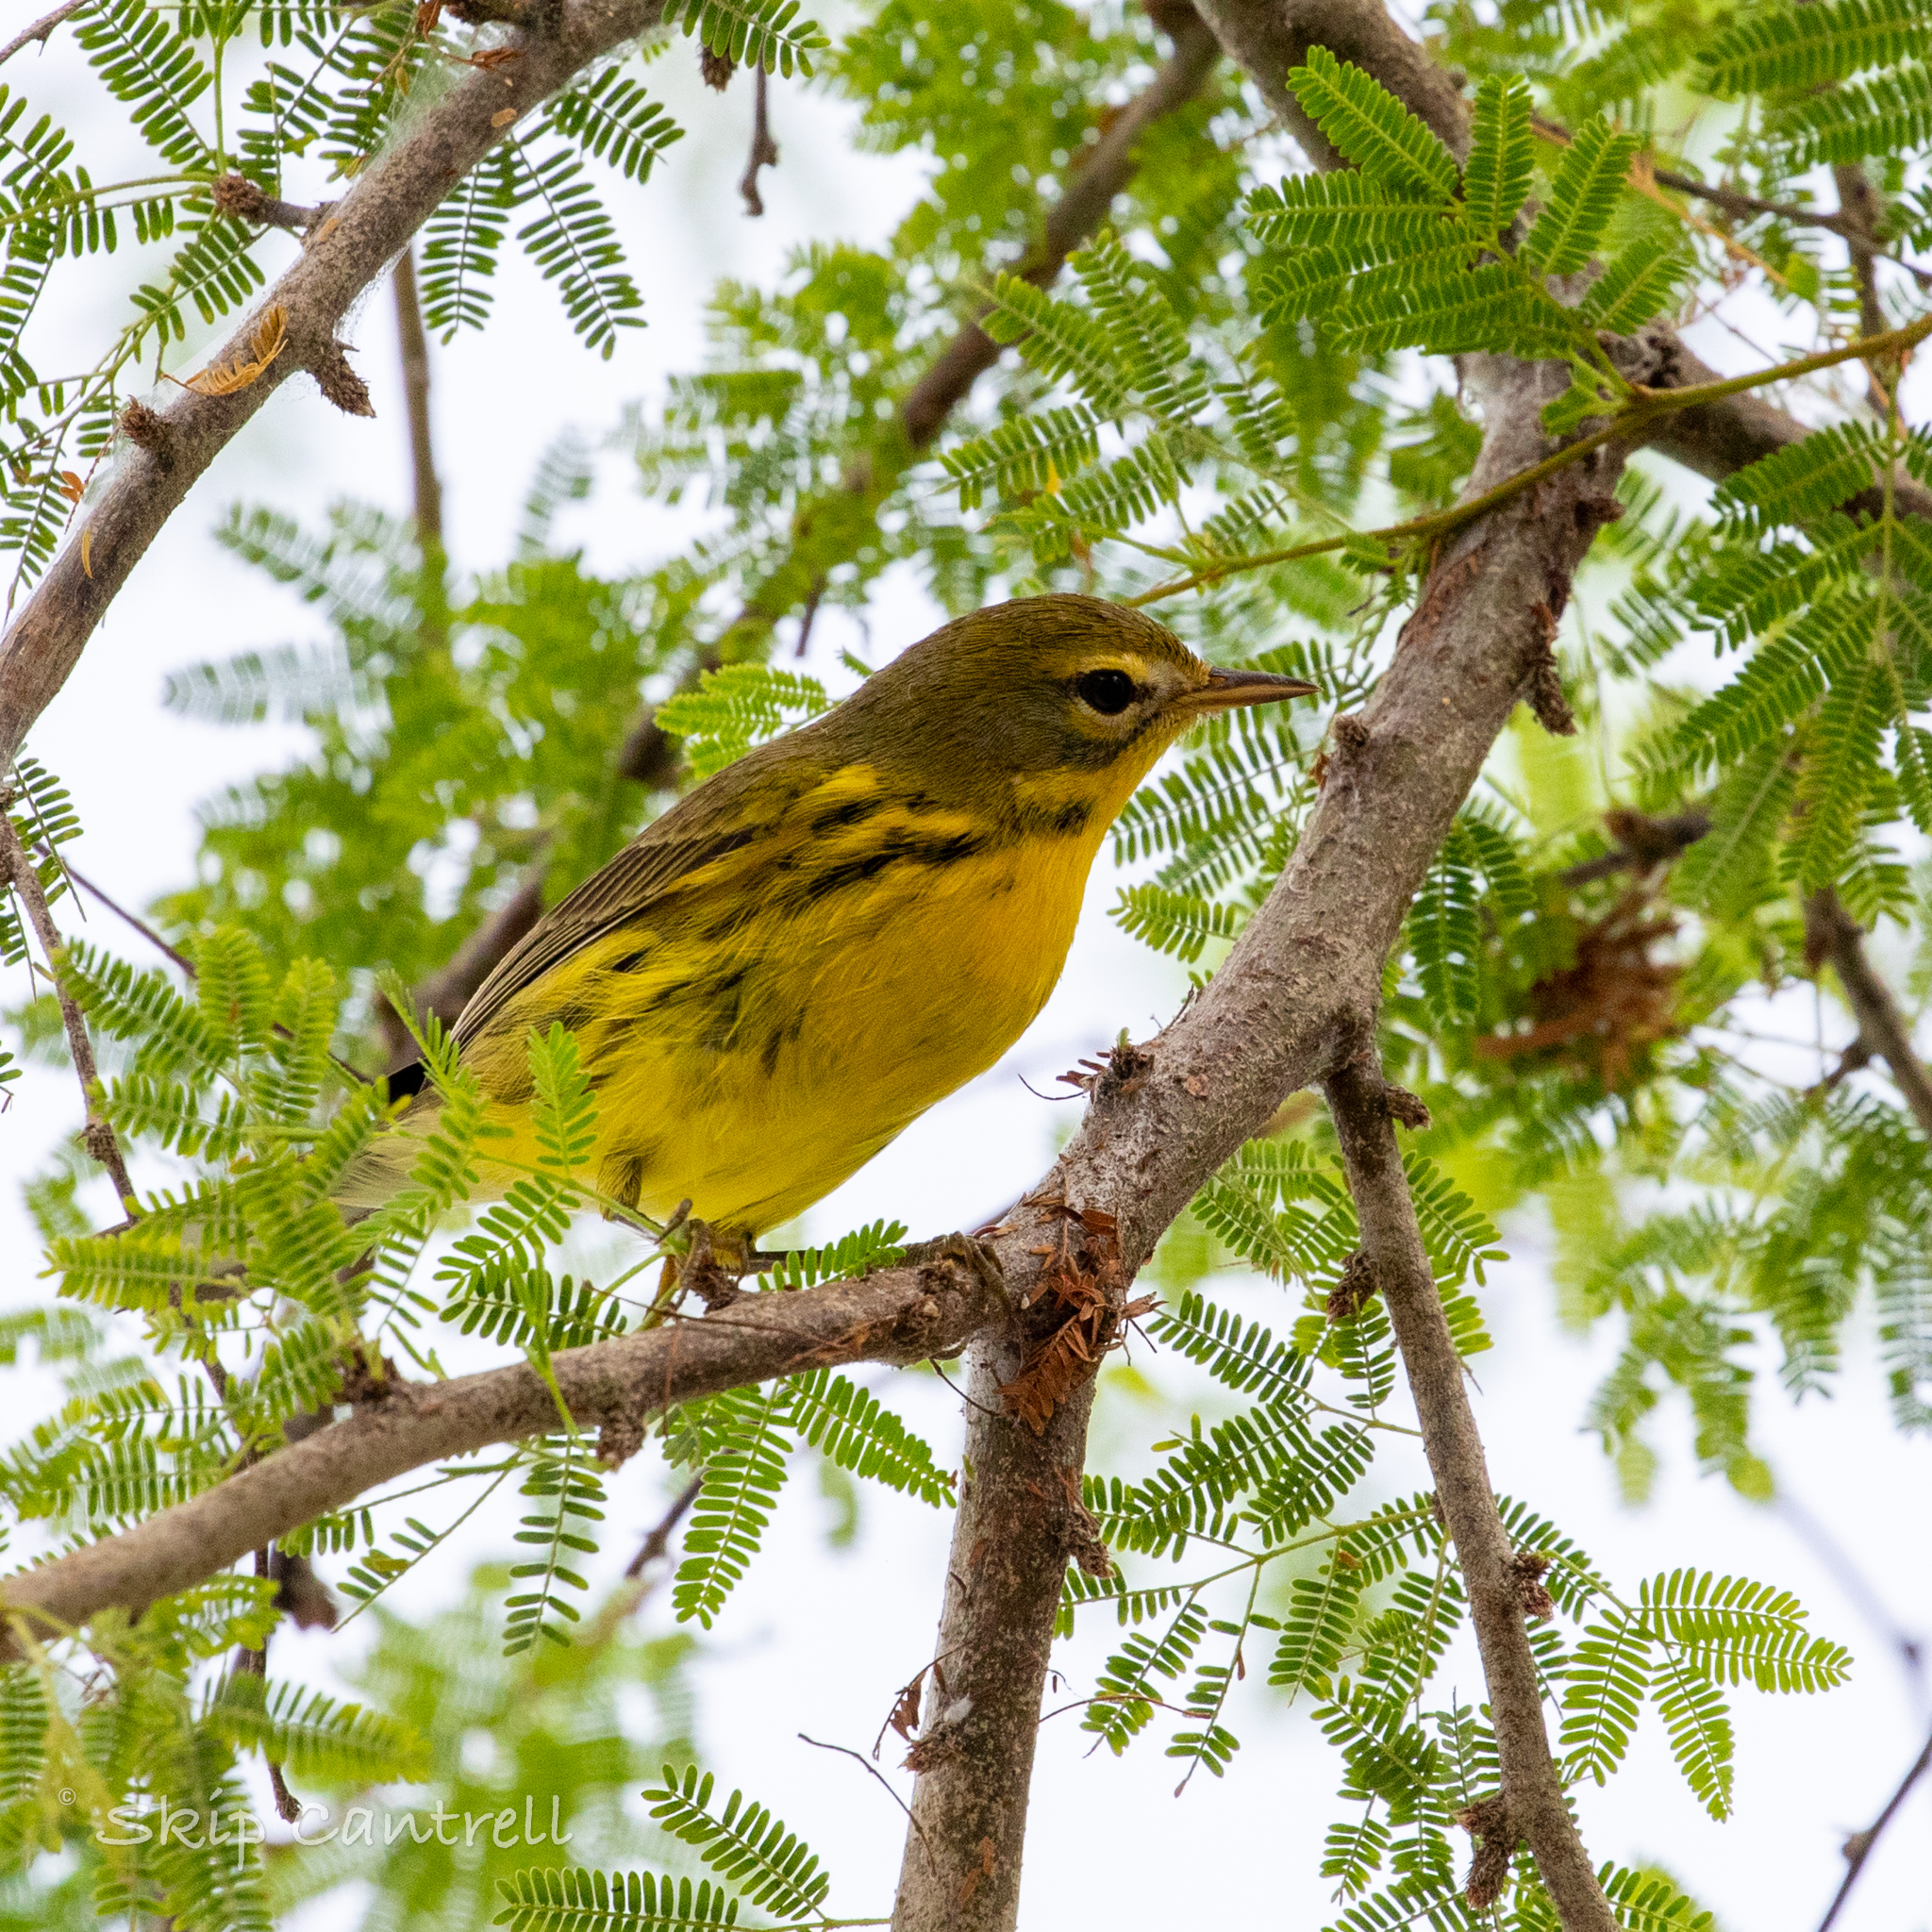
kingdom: Animalia
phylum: Chordata
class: Aves
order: Passeriformes
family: Parulidae
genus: Setophaga
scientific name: Setophaga discolor
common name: Prairie warbler
